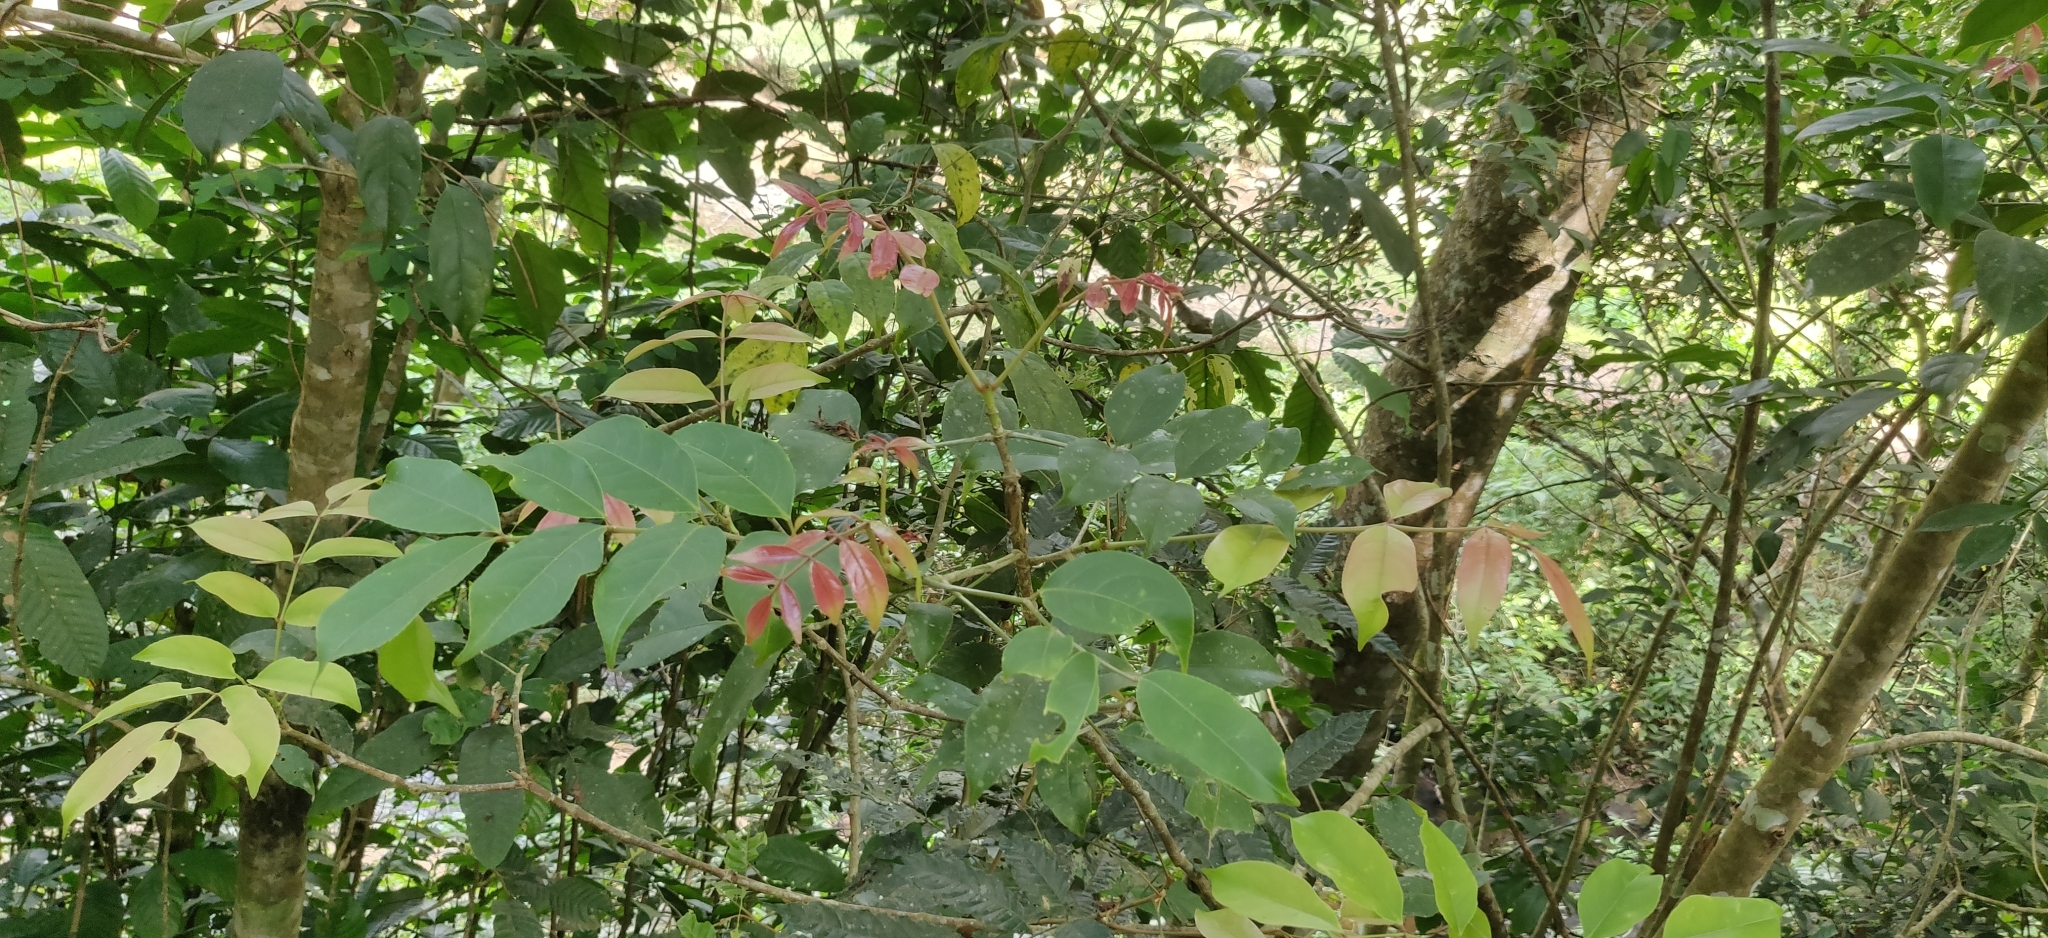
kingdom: Plantae
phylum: Tracheophyta
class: Magnoliopsida
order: Crossosomatales
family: Staphyleaceae
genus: Staphylea
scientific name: Staphylea
